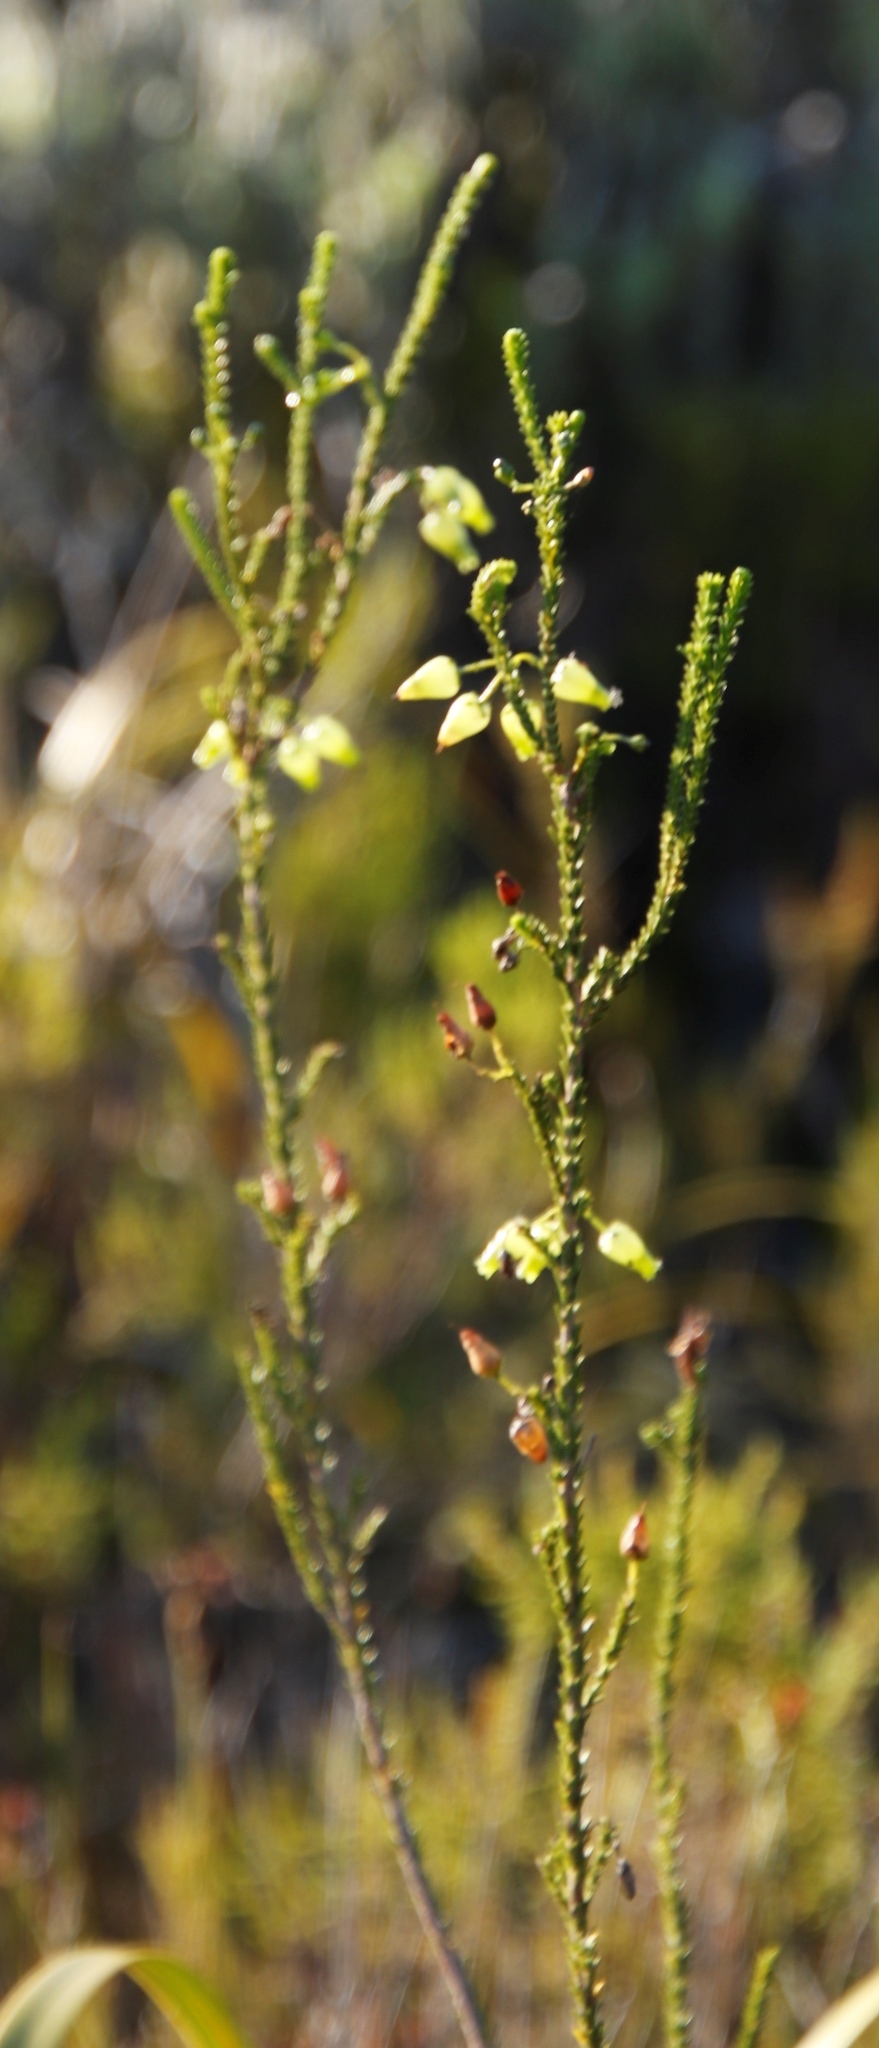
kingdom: Plantae
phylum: Tracheophyta
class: Magnoliopsida
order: Ericales
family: Ericaceae
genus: Erica
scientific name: Erica urna-viridis
